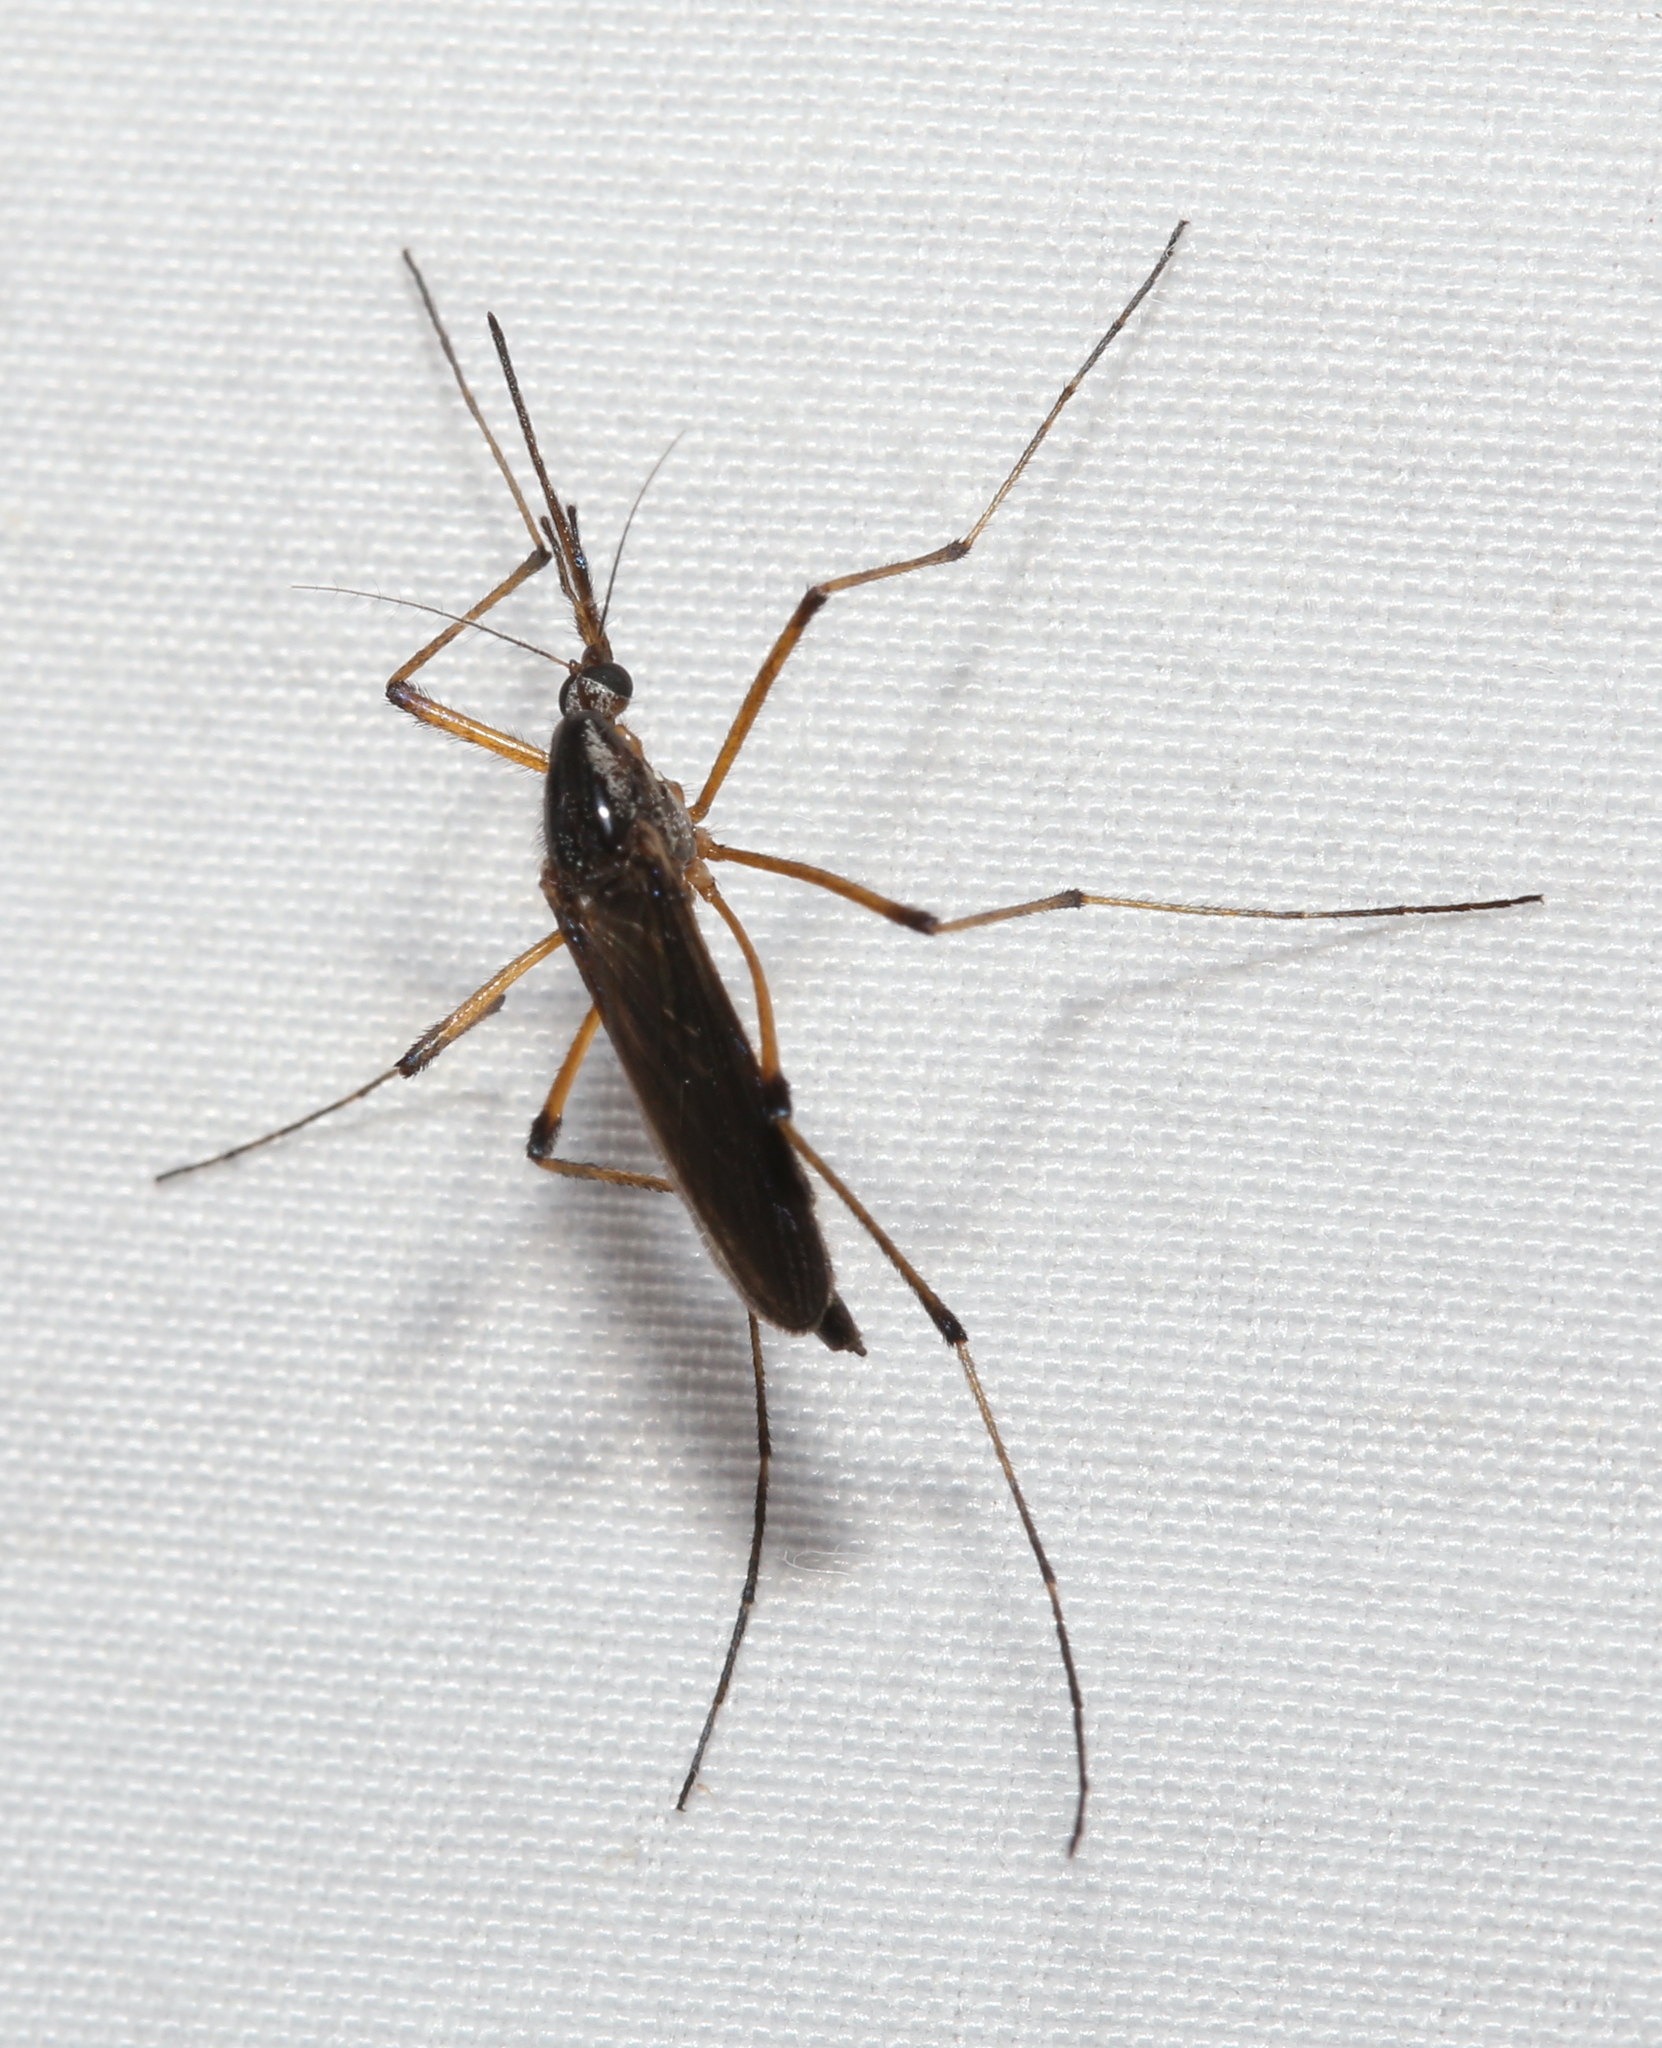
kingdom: Animalia
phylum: Arthropoda
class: Insecta
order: Diptera
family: Culicidae
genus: Psorophora
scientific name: Psorophora howardii
